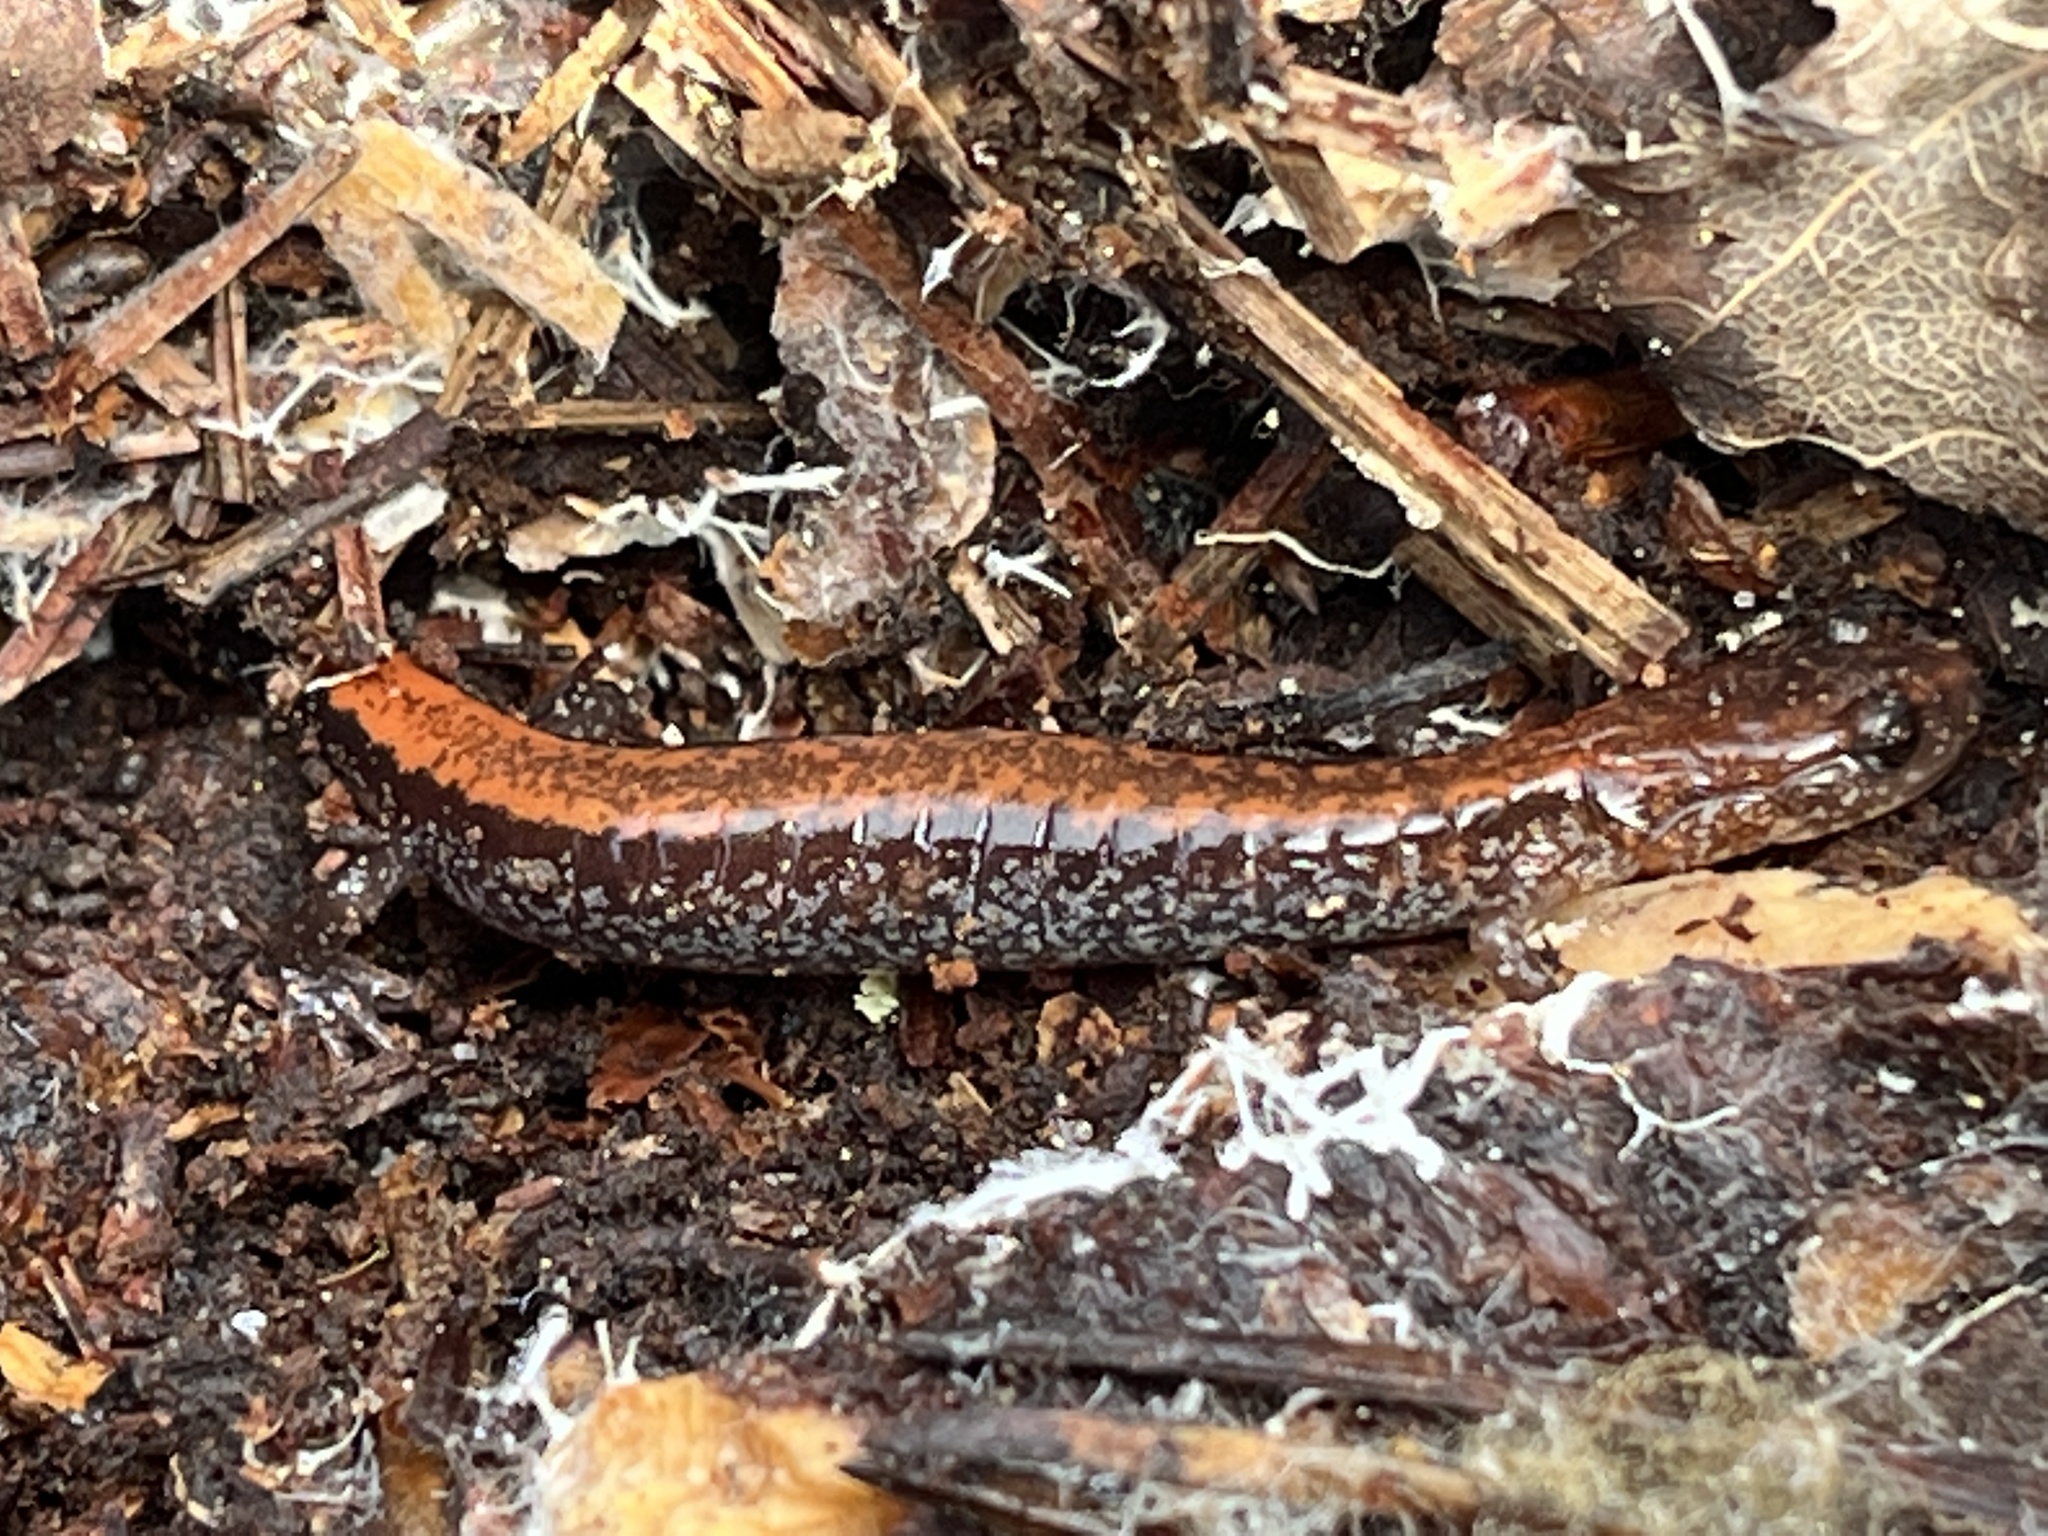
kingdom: Animalia
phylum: Chordata
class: Amphibia
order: Caudata
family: Plethodontidae
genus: Plethodon
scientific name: Plethodon cinereus
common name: Redback salamander
